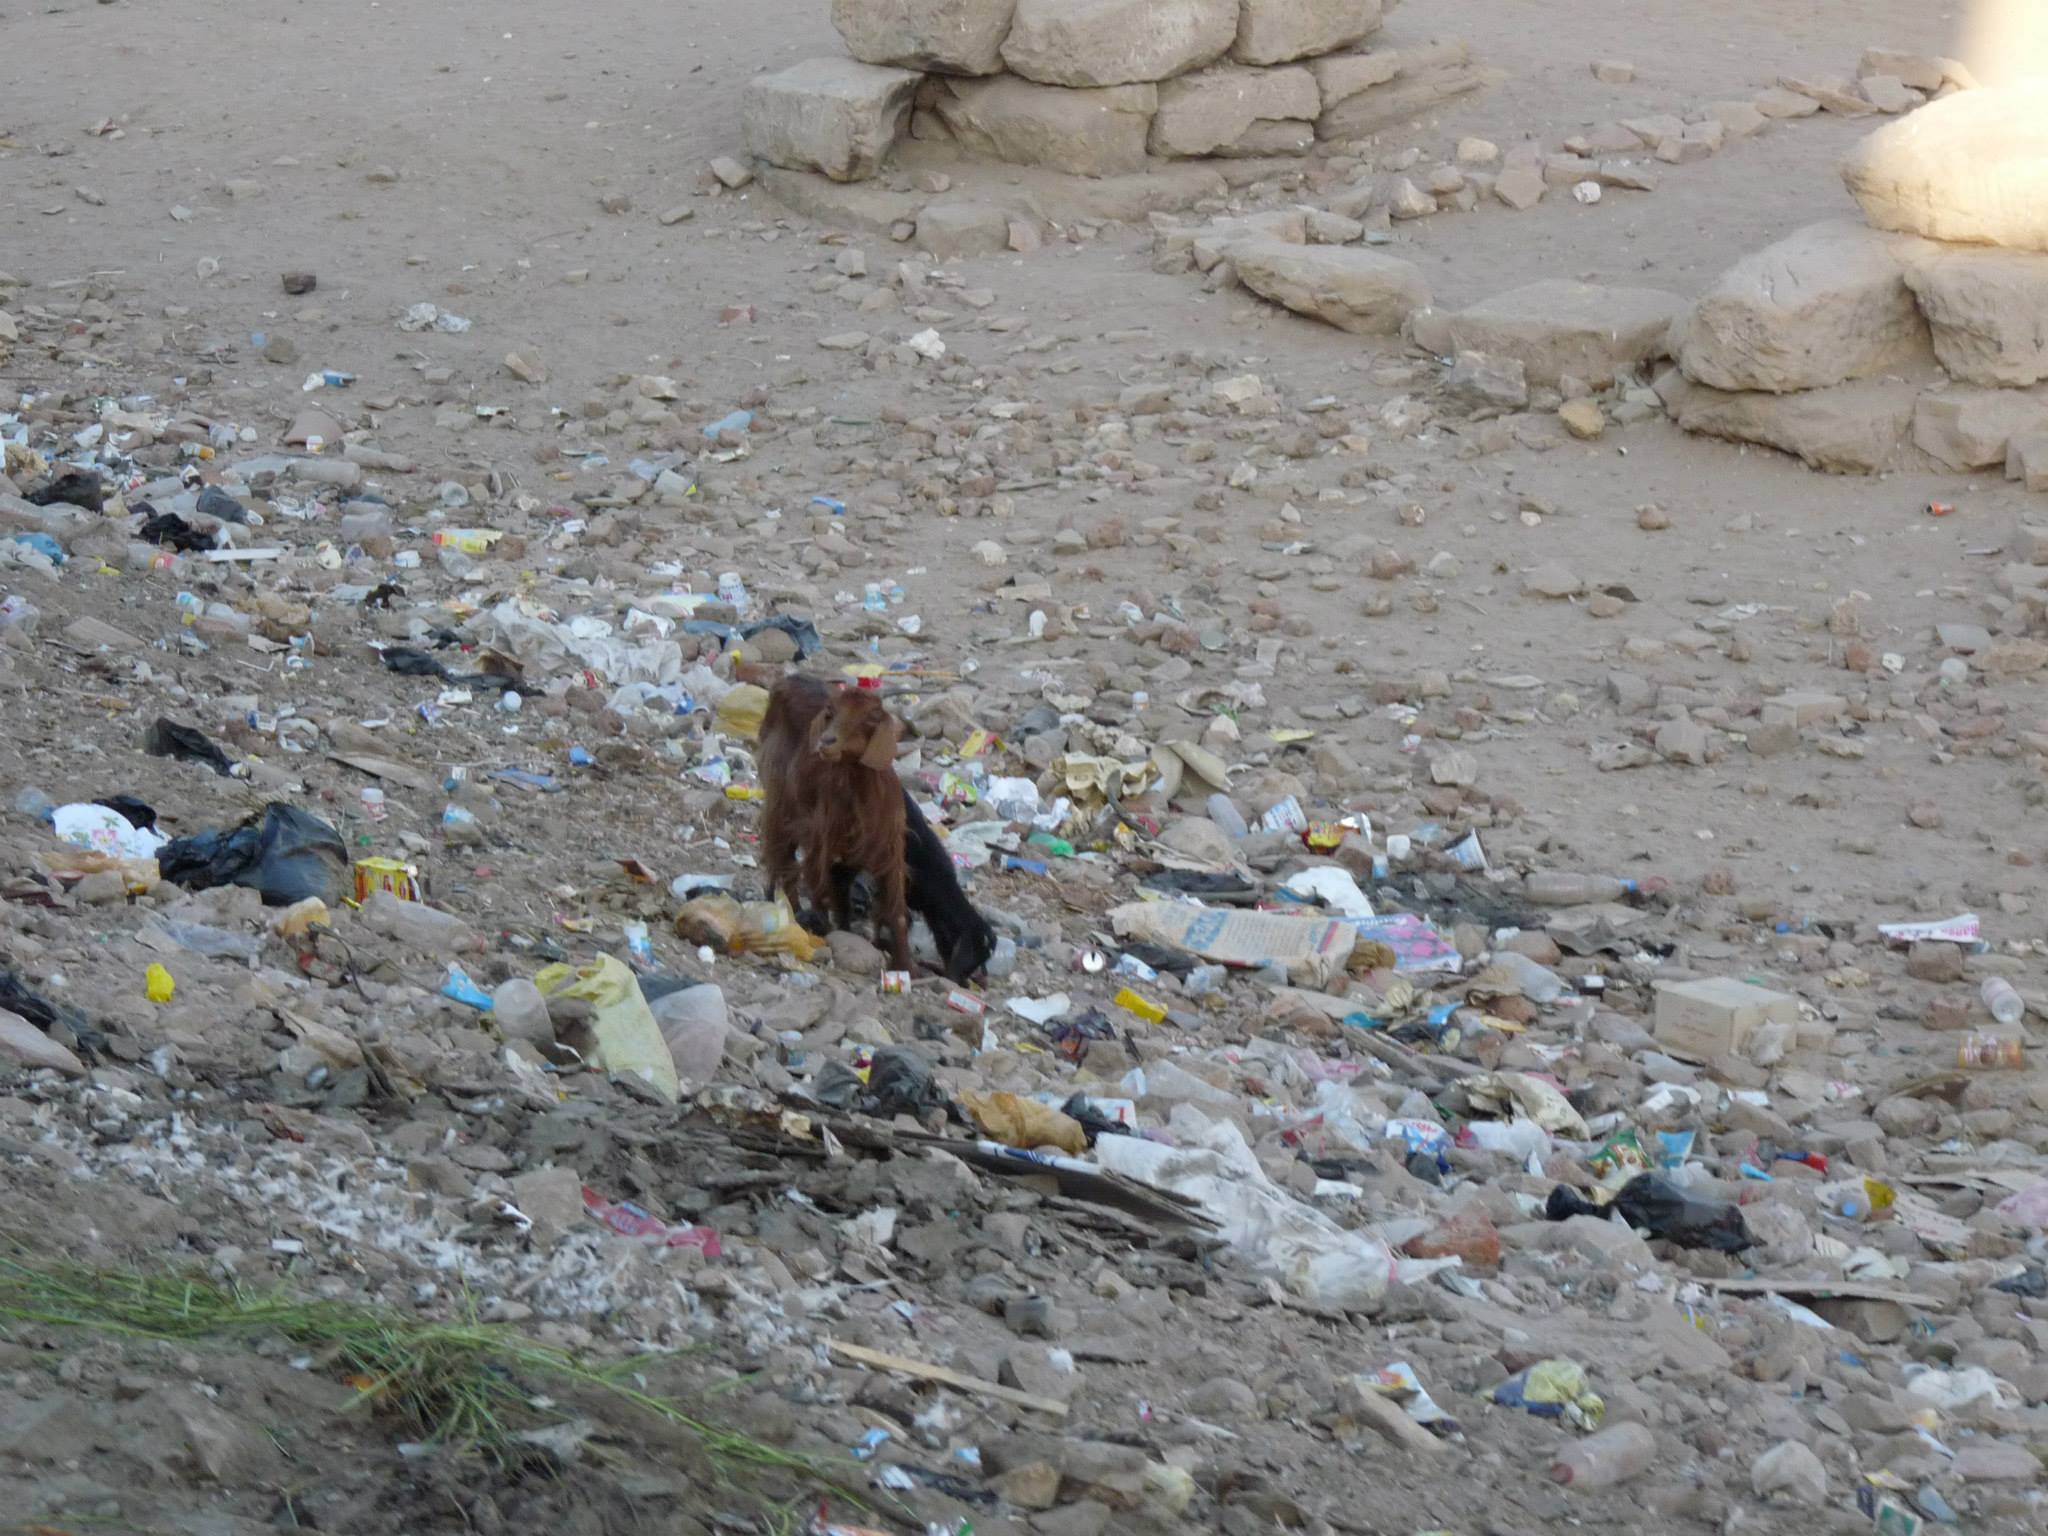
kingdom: Animalia
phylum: Chordata
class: Mammalia
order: Artiodactyla
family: Bovidae
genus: Capra
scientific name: Capra hircus
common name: Domestic goat
